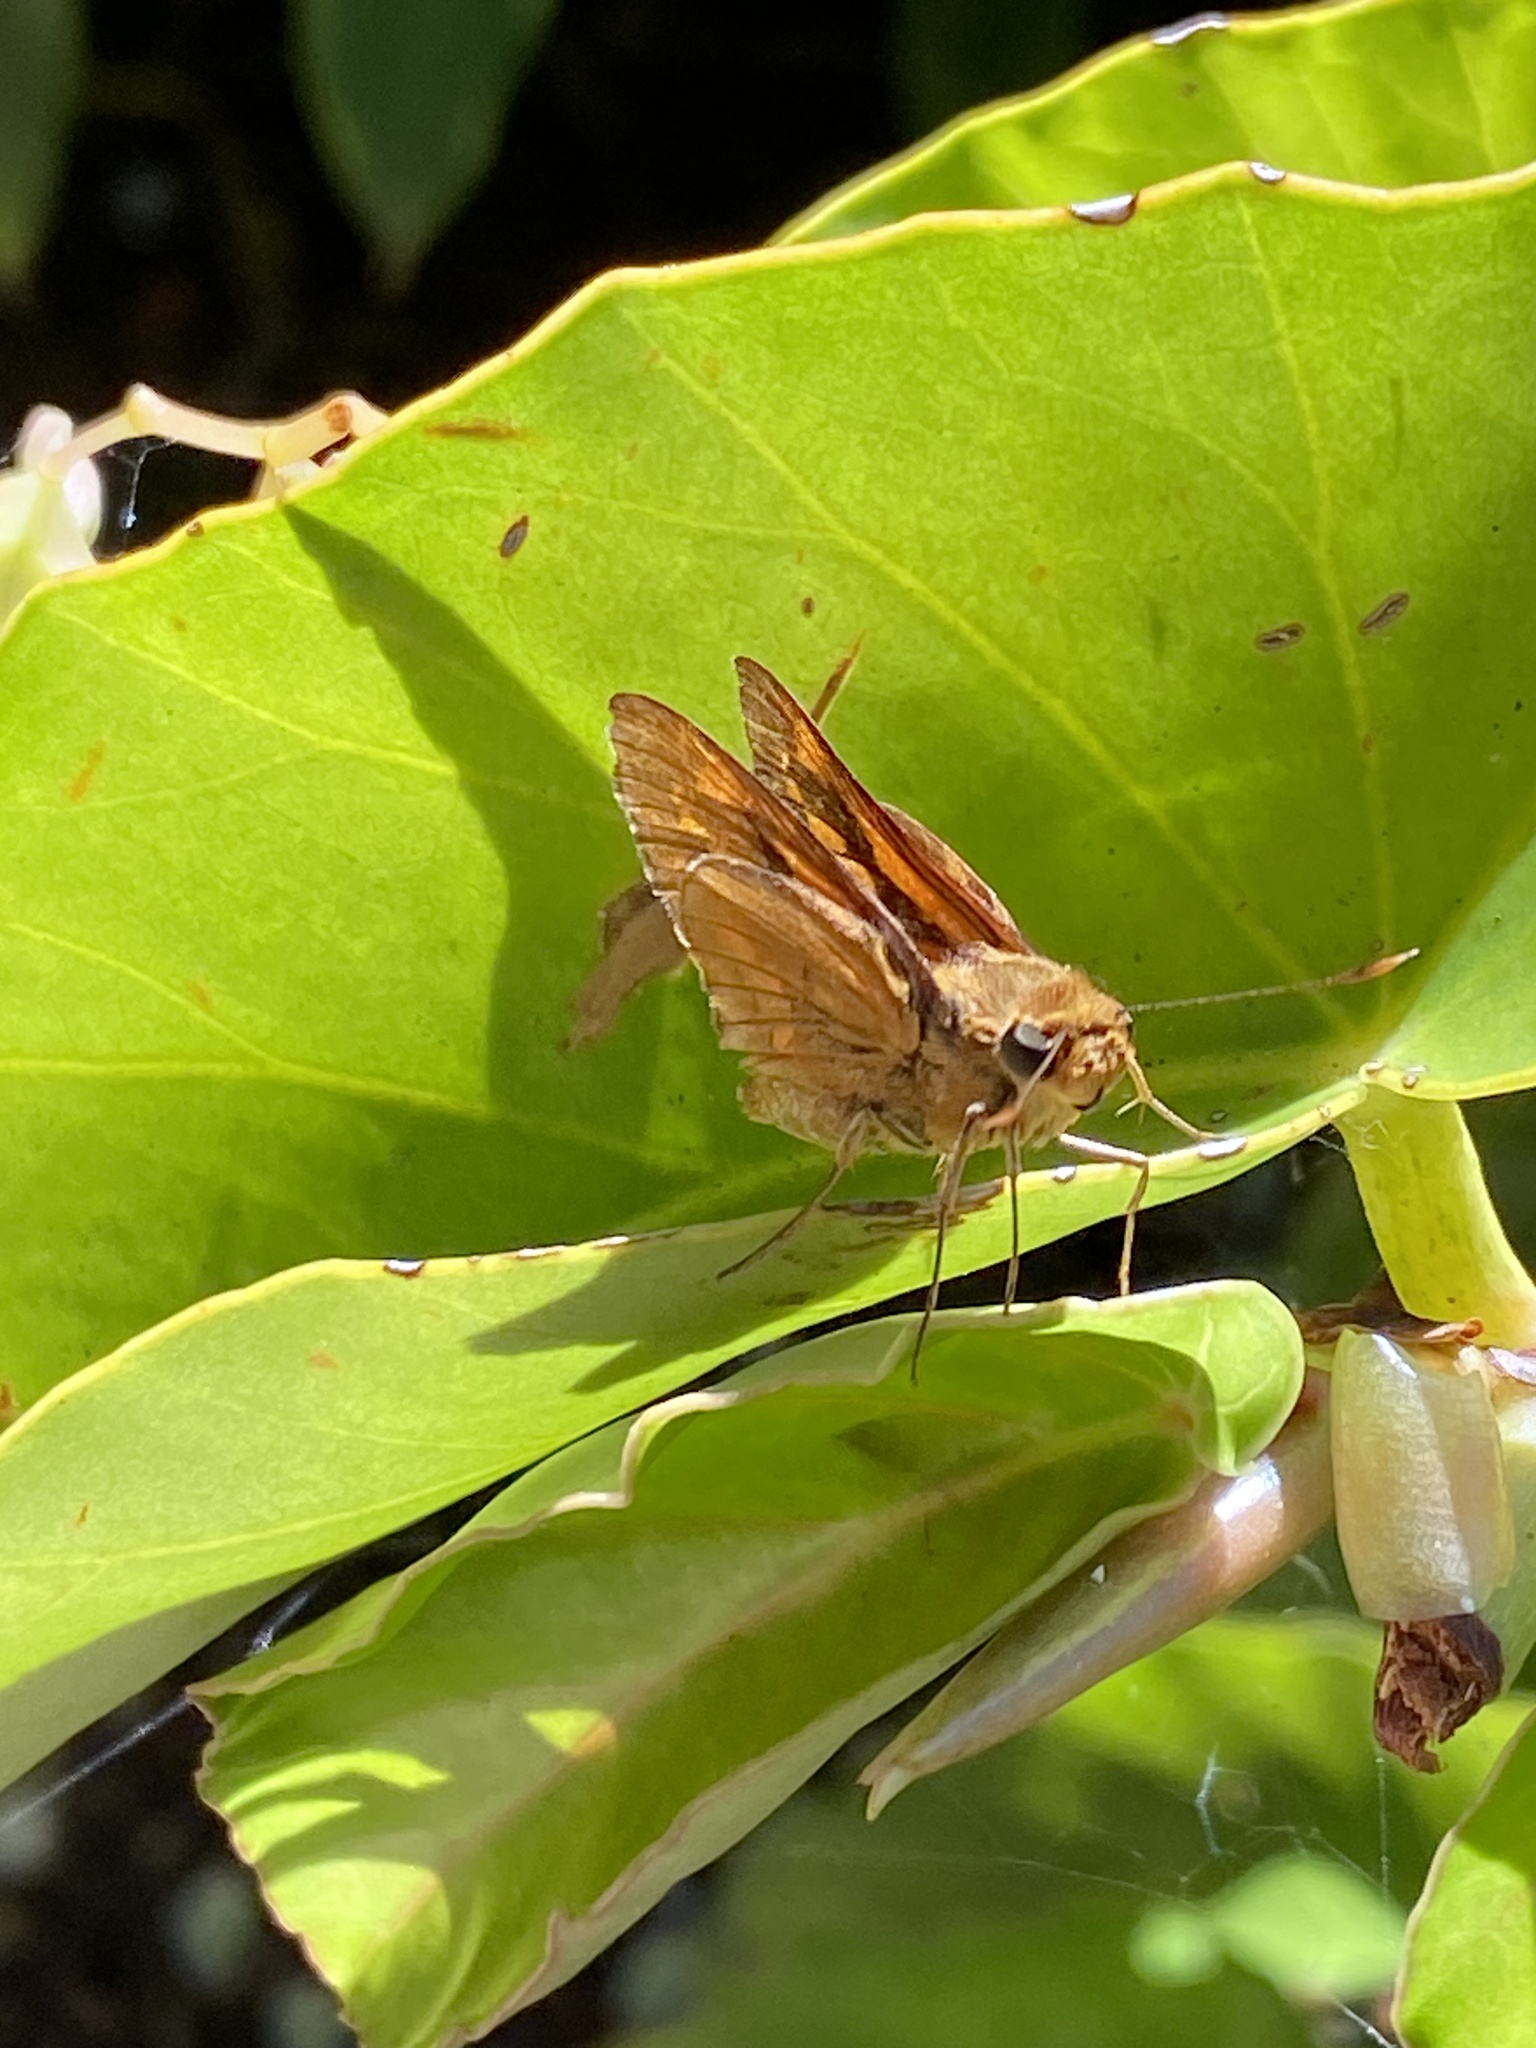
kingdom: Animalia
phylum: Arthropoda
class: Insecta
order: Lepidoptera
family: Hesperiidae
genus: Cephrenes
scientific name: Cephrenes augiades
